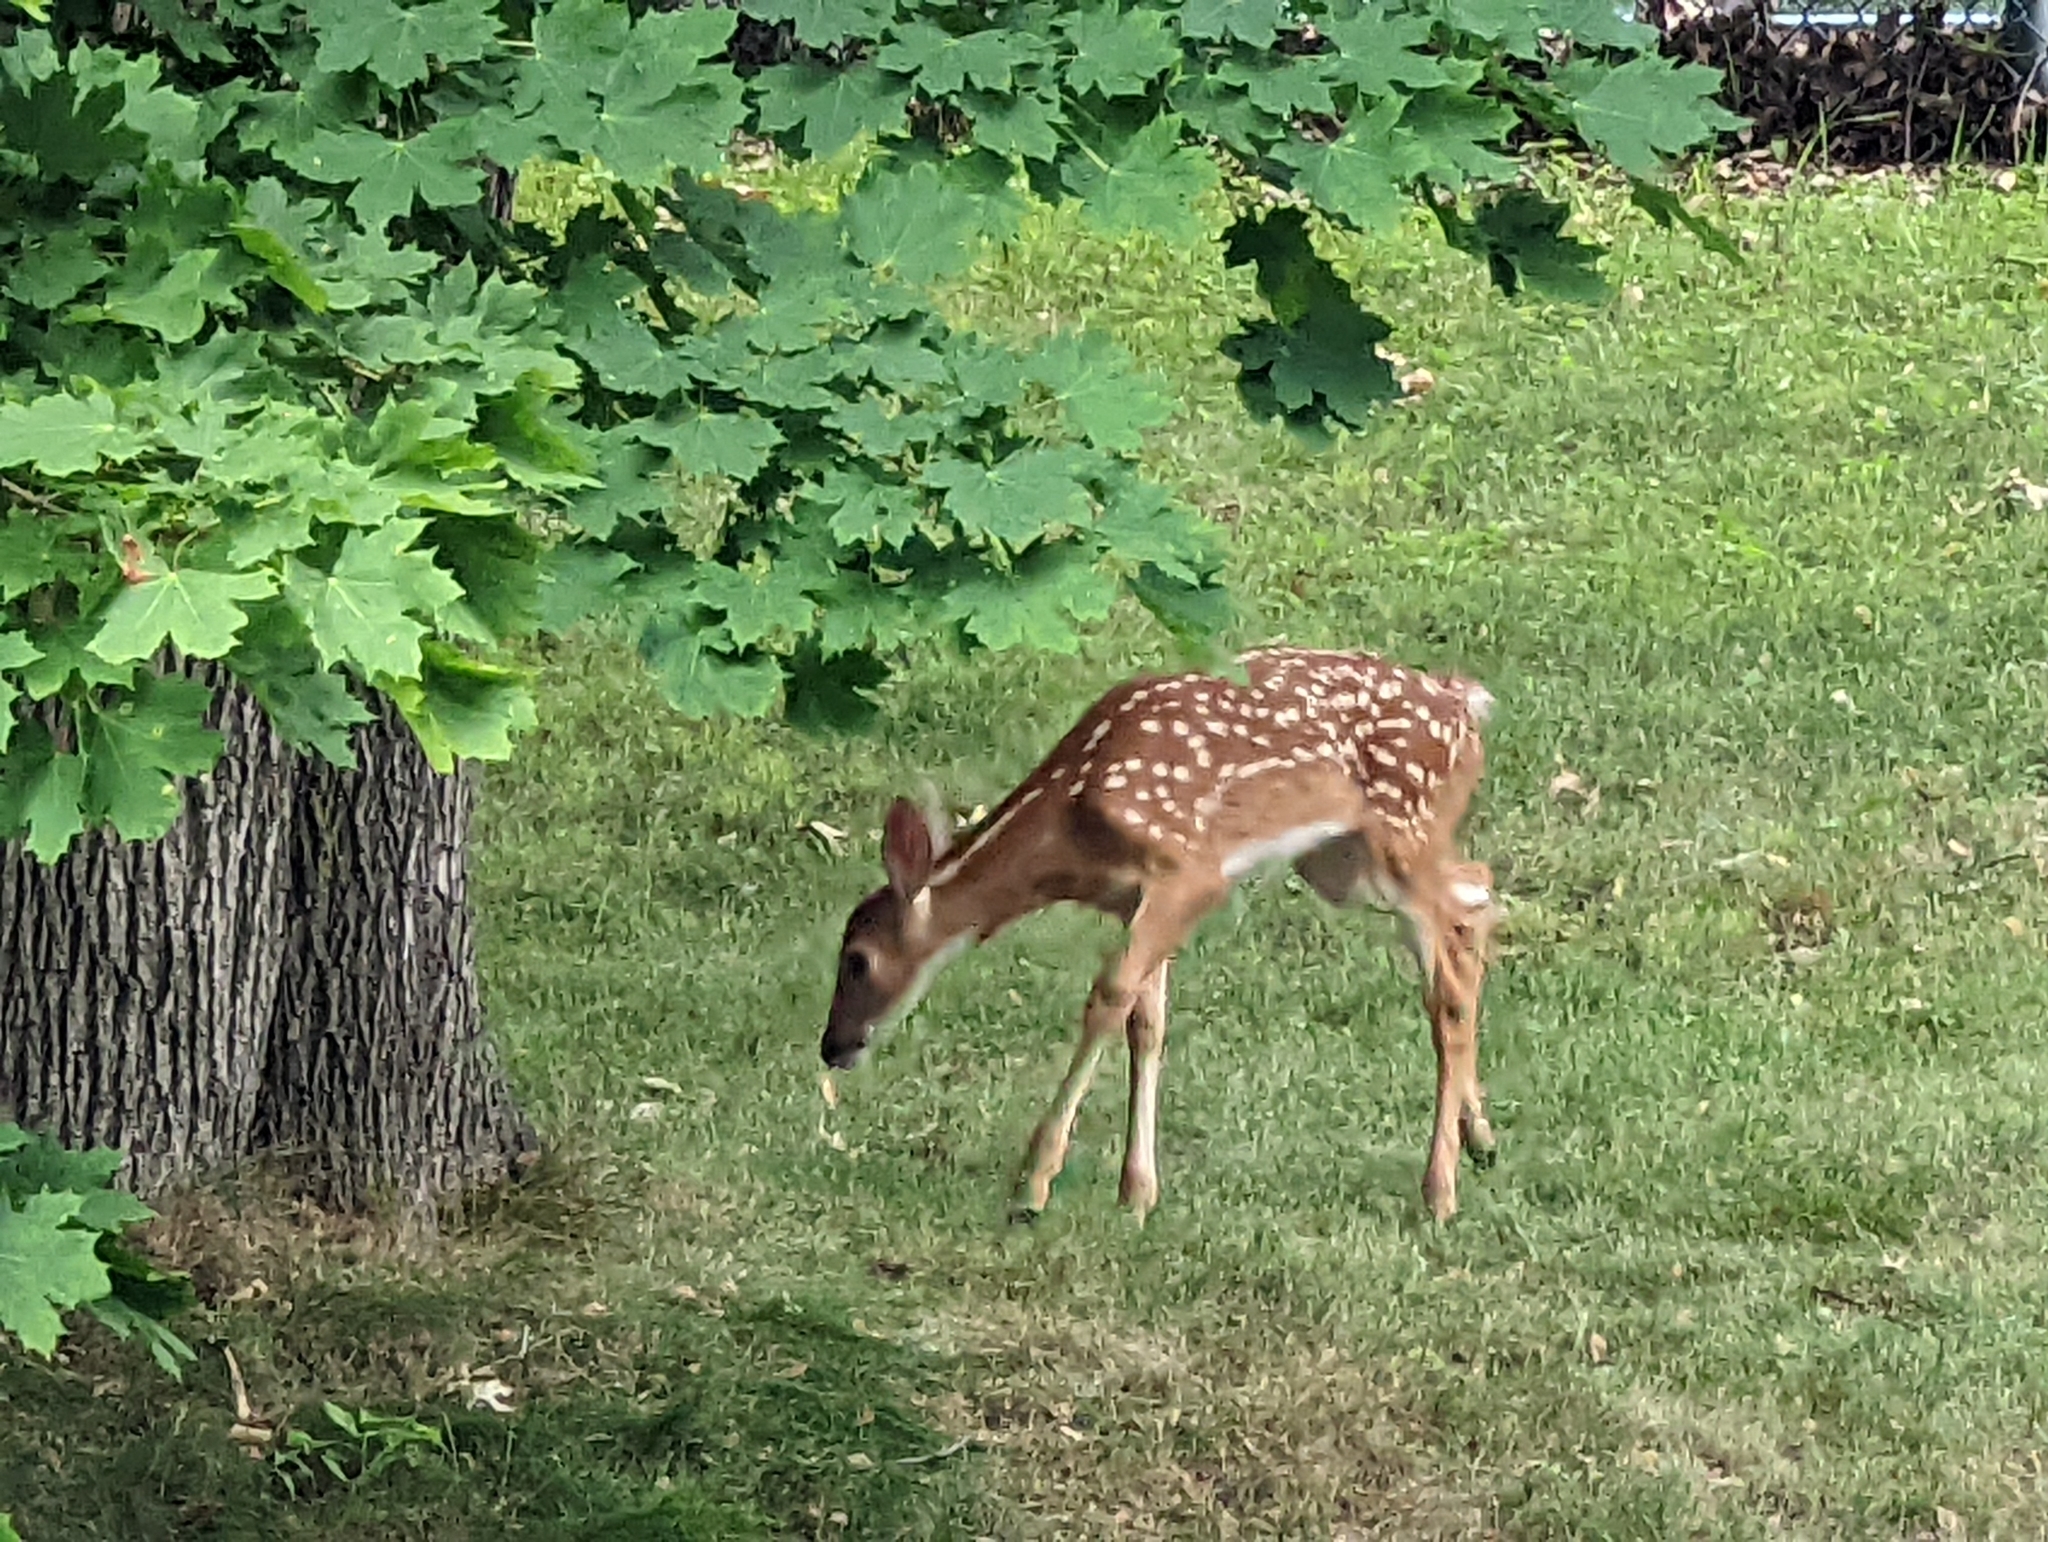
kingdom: Animalia
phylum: Chordata
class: Mammalia
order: Artiodactyla
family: Cervidae
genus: Odocoileus
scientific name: Odocoileus virginianus
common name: White-tailed deer
